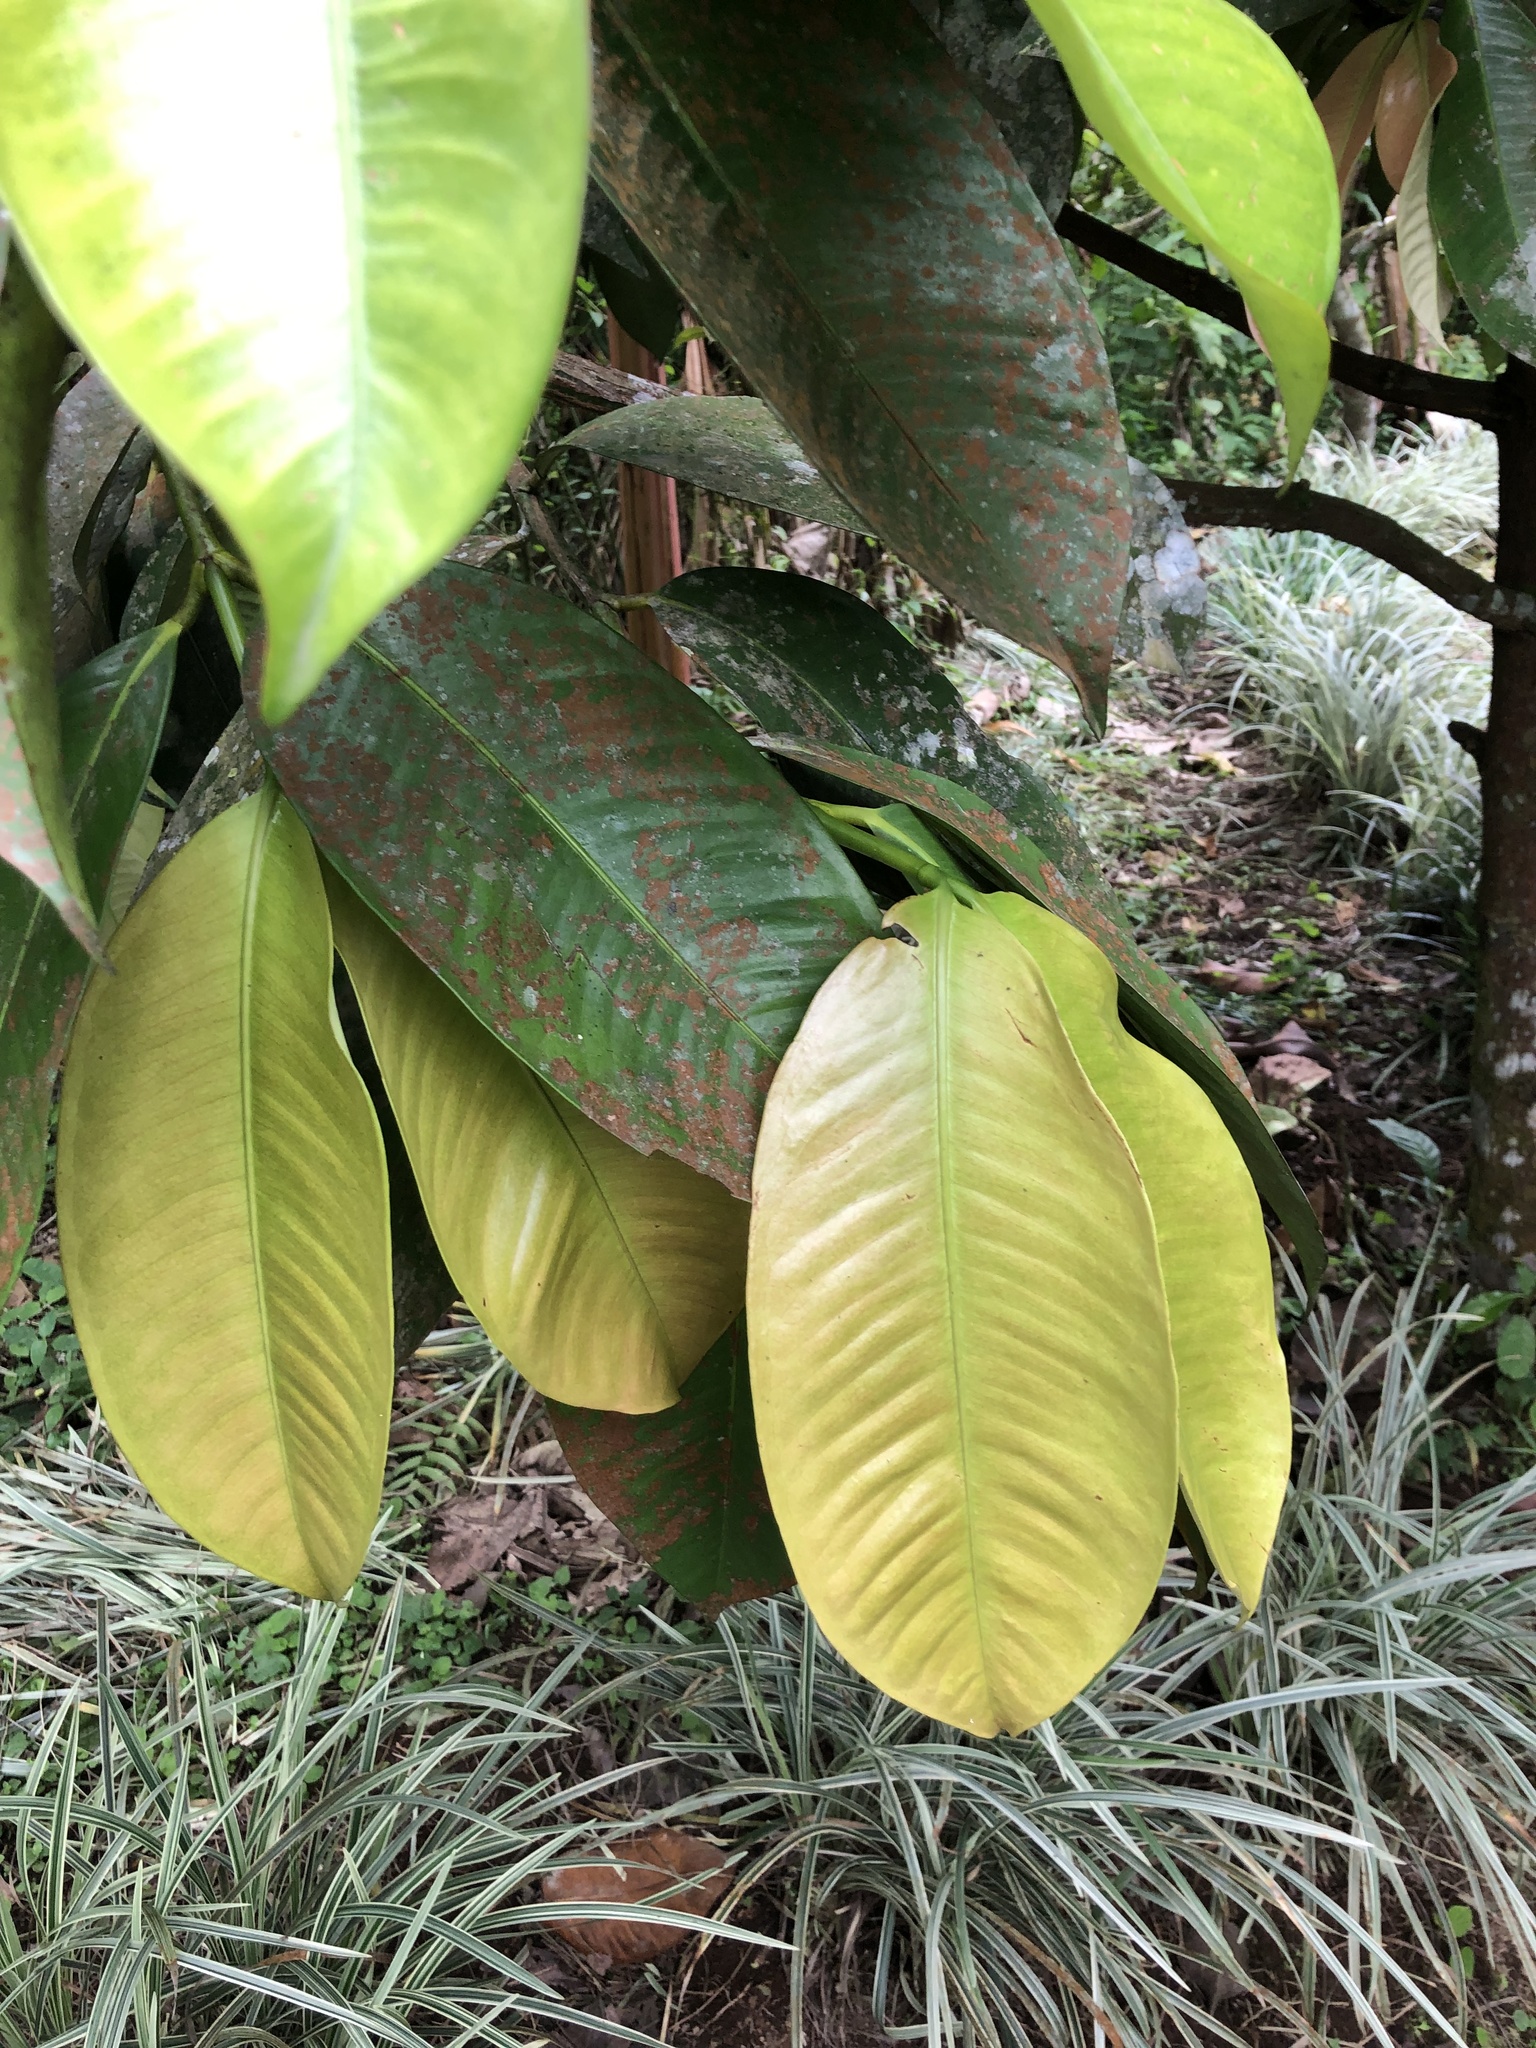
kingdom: Plantae
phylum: Tracheophyta
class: Magnoliopsida
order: Malpighiales
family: Clusiaceae
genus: Garcinia
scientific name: Garcinia mangostana
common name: Mangosteen
